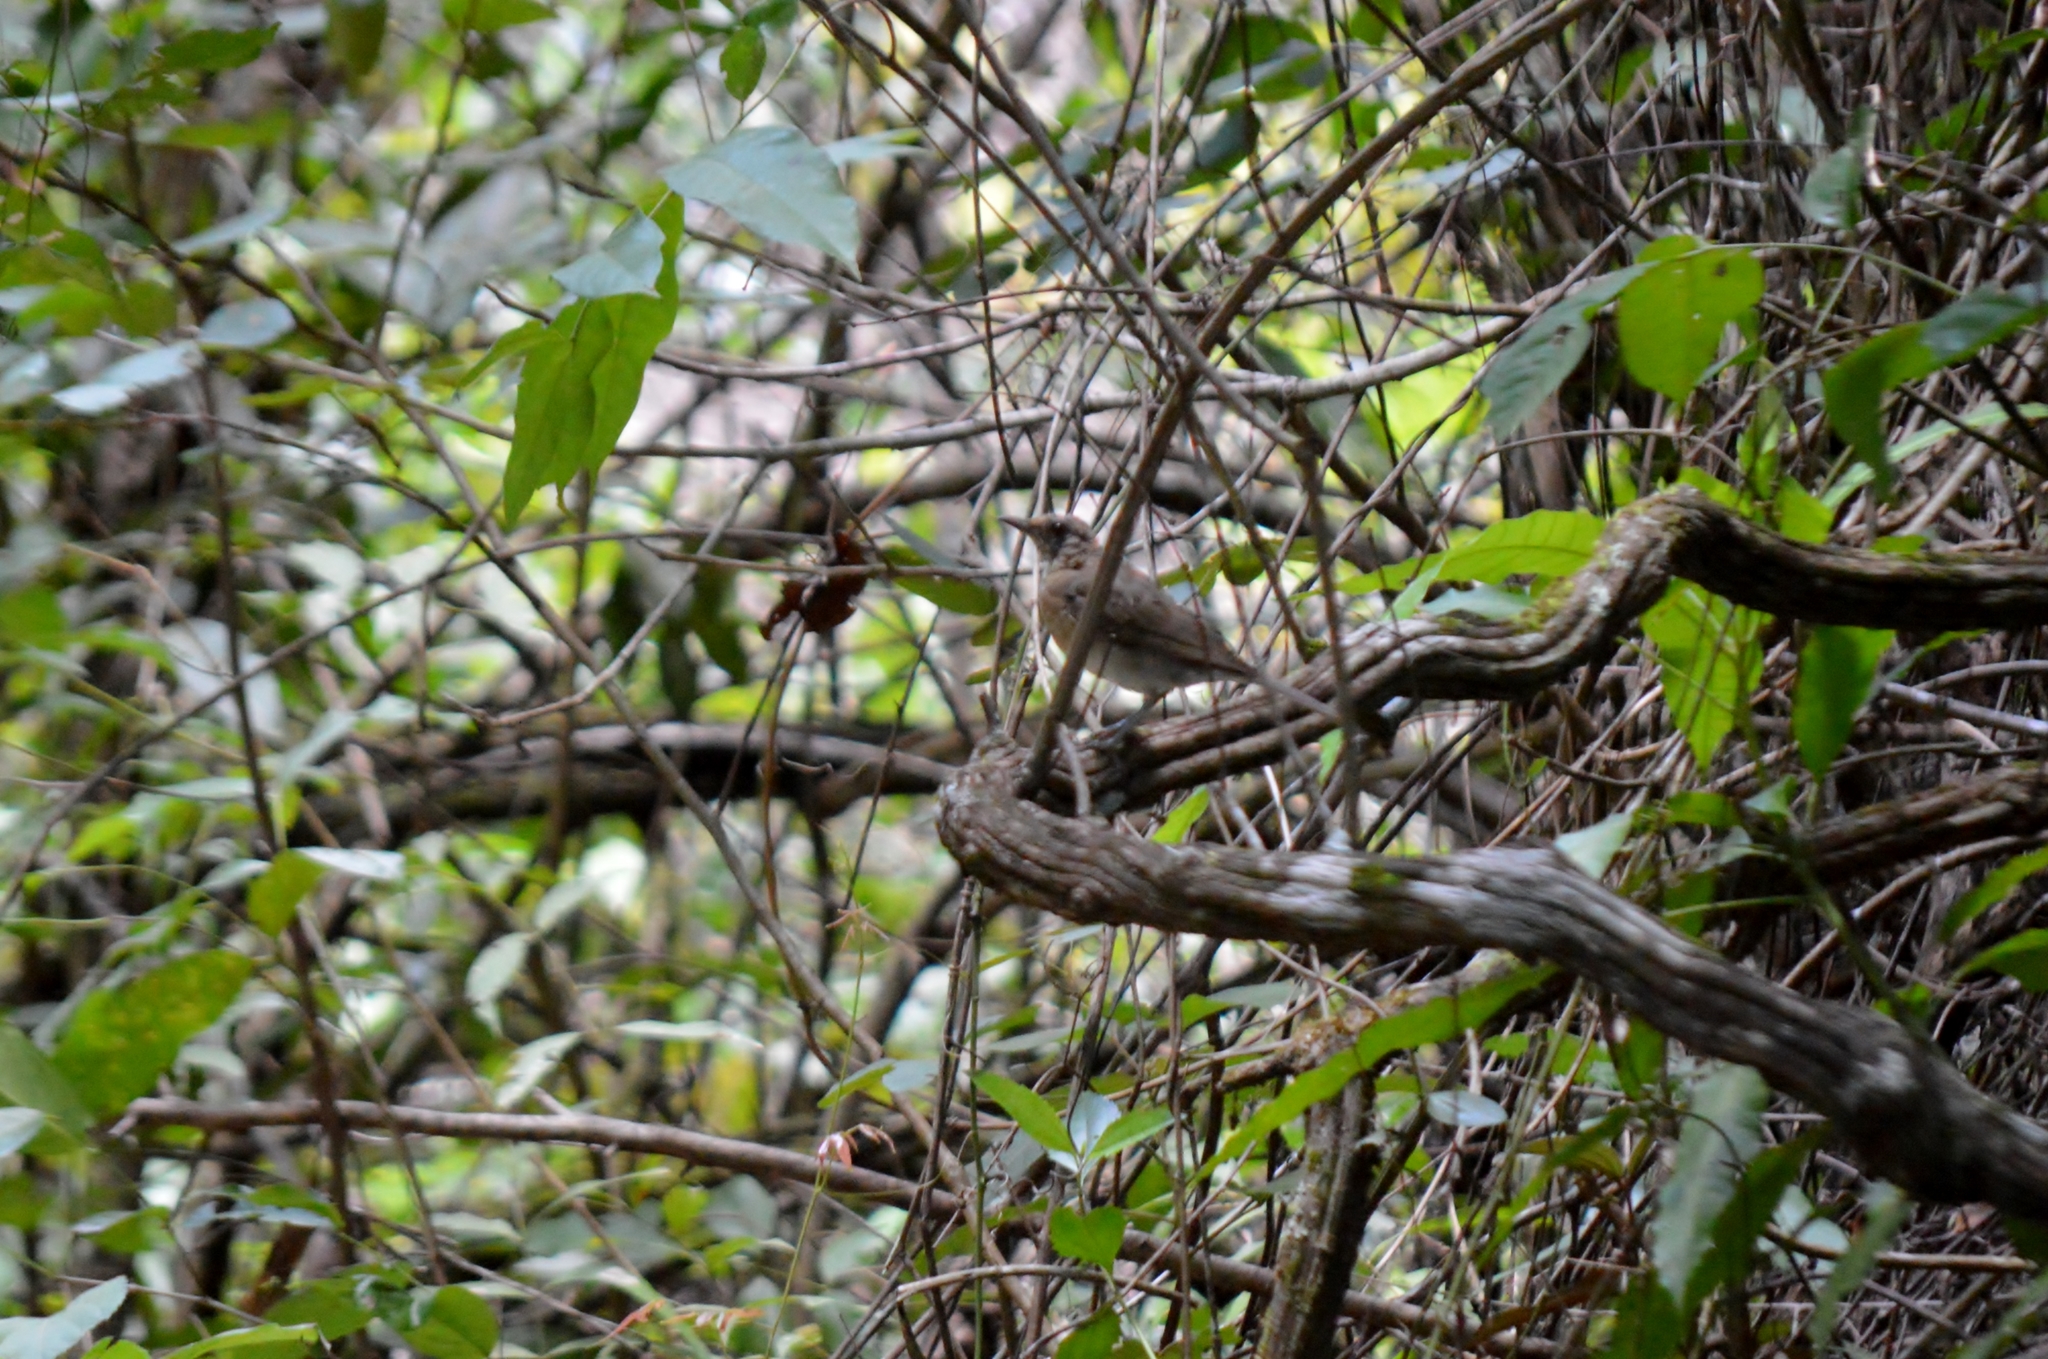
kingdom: Animalia
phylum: Chordata
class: Aves
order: Passeriformes
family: Turdidae
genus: Turdus
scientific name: Turdus leucomelas
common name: Pale-breasted thrush
